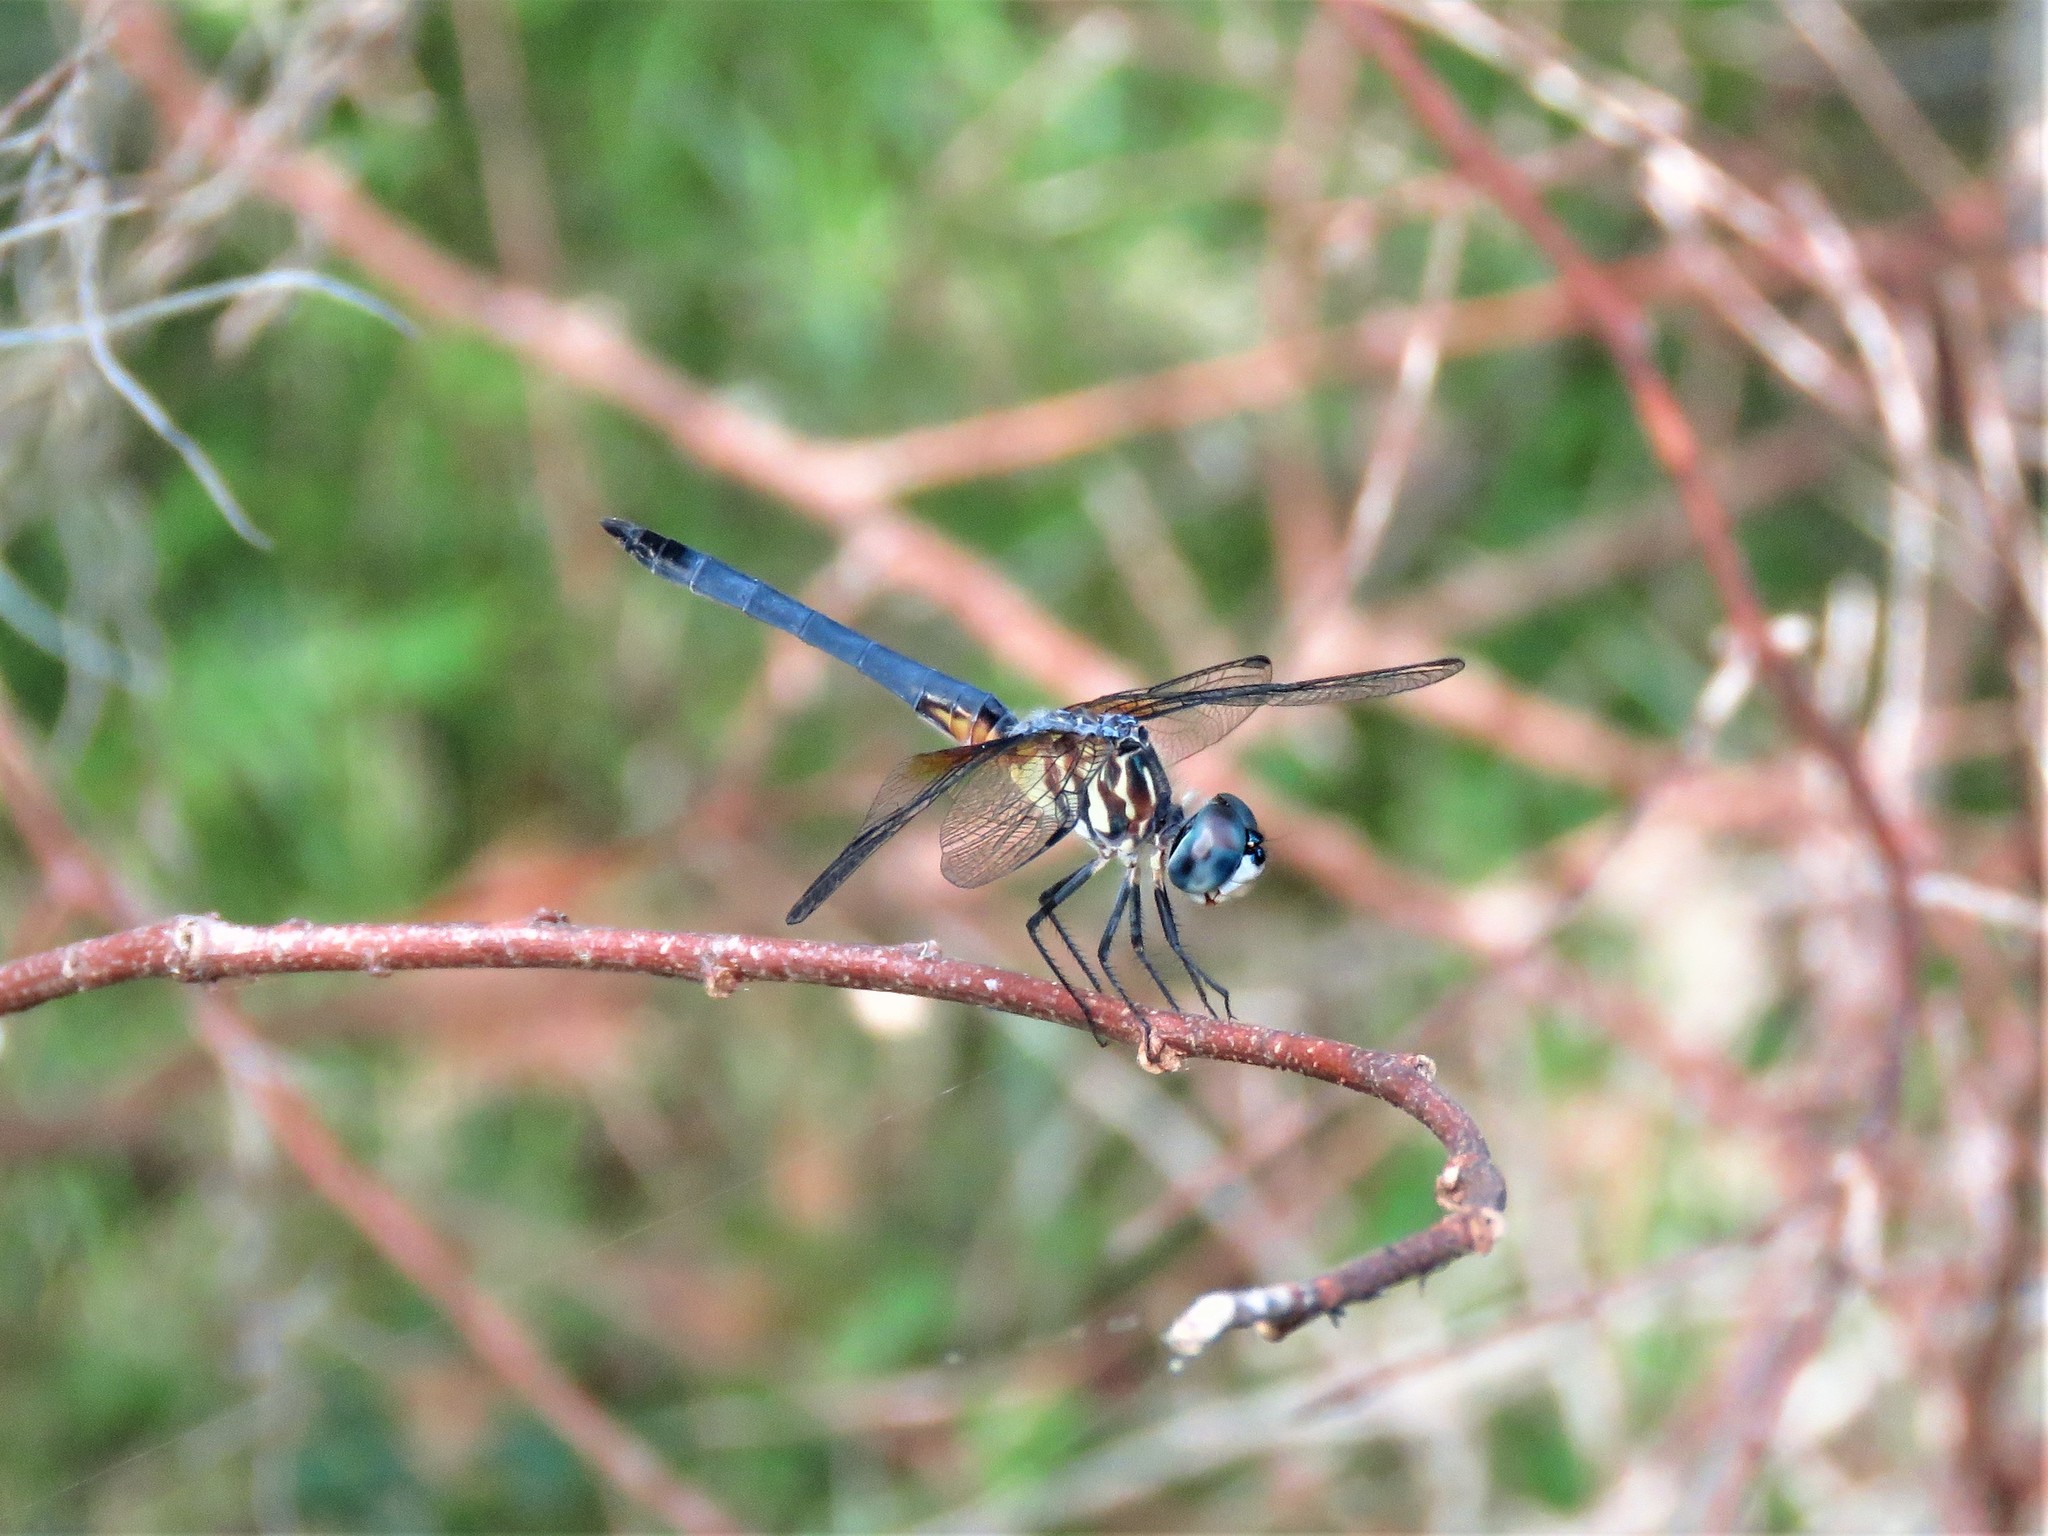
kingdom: Animalia
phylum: Arthropoda
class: Insecta
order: Odonata
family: Libellulidae
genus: Pachydiplax
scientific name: Pachydiplax longipennis
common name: Blue dasher
